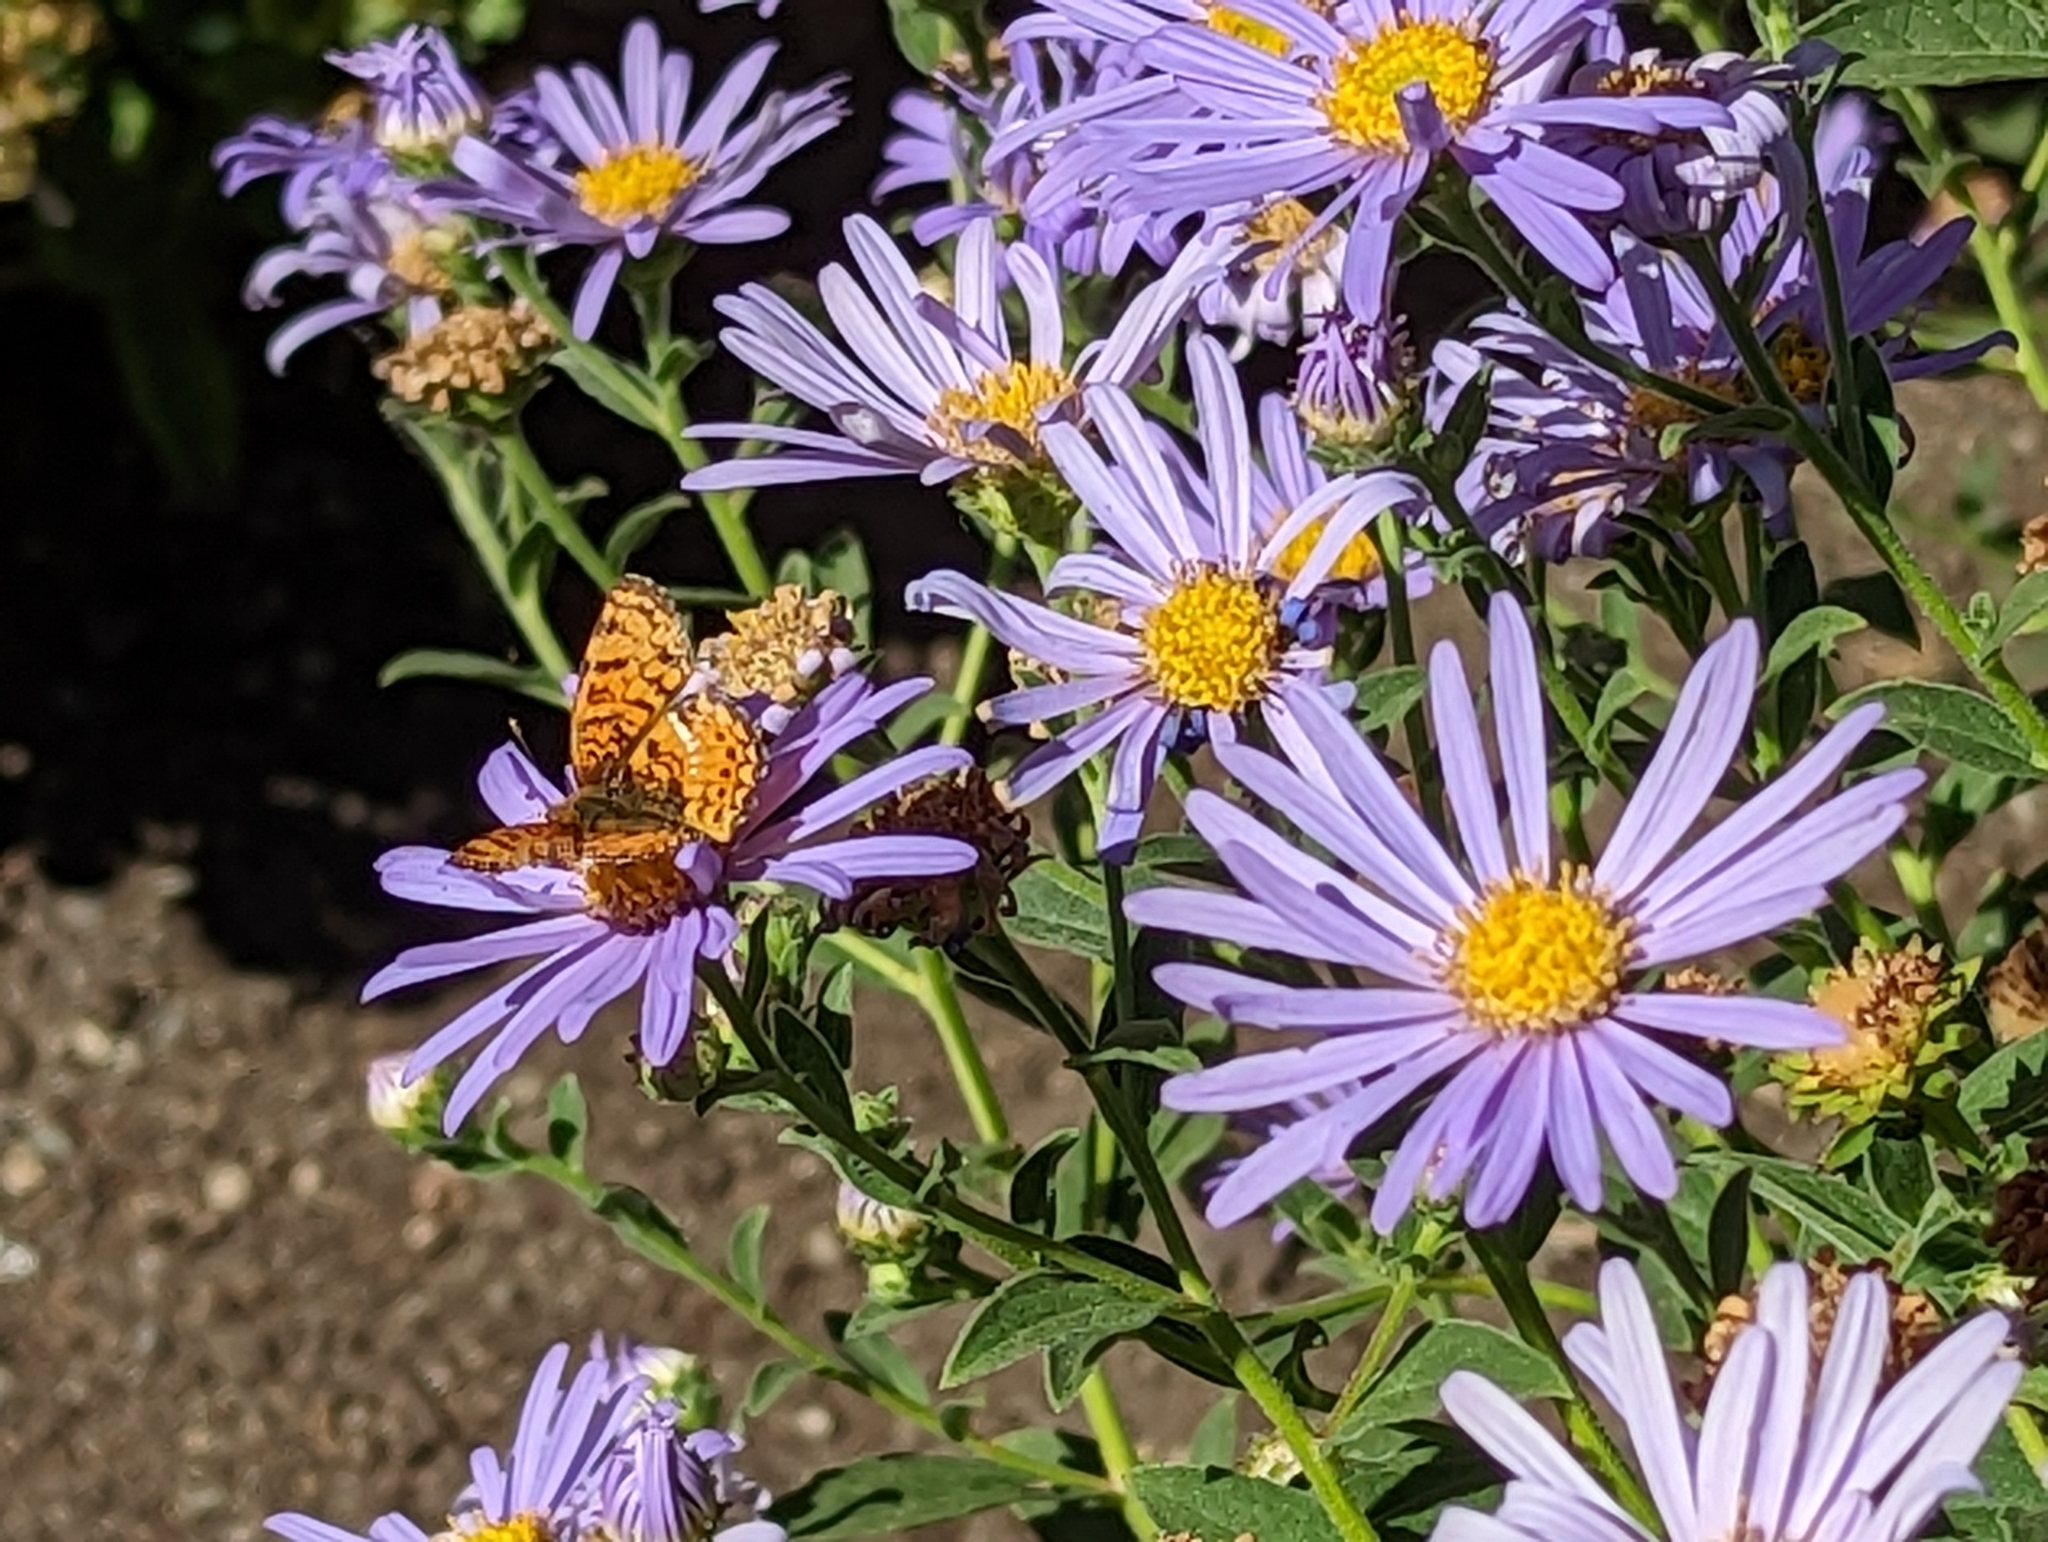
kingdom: Animalia
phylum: Arthropoda
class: Insecta
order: Lepidoptera
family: Nymphalidae
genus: Eresia
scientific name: Eresia aveyrona
